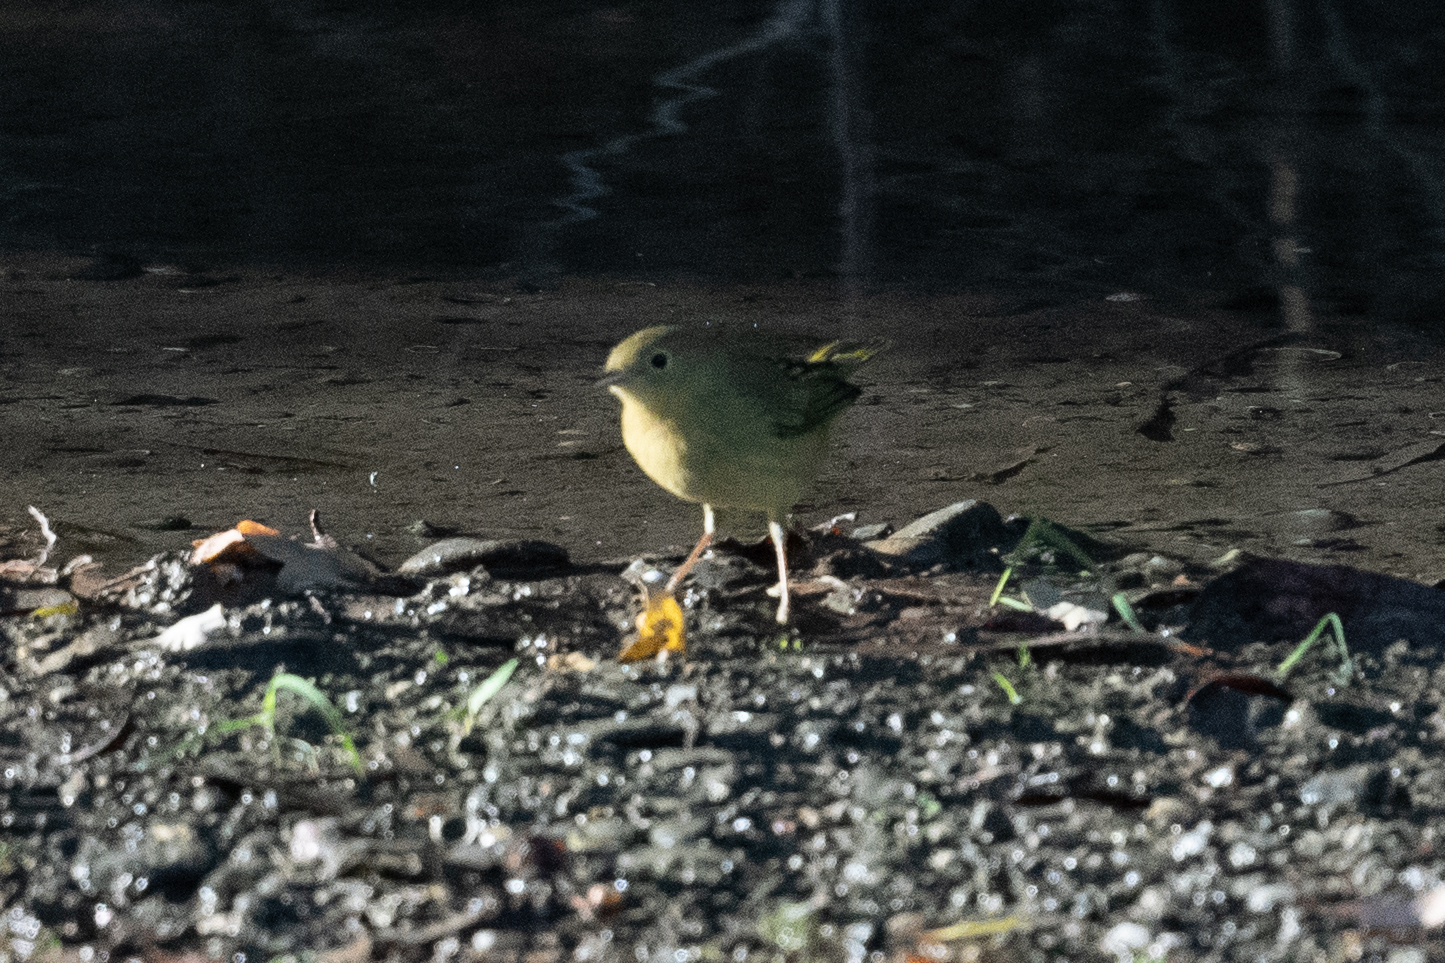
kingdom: Animalia
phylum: Chordata
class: Aves
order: Passeriformes
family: Parulidae
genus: Setophaga
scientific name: Setophaga petechia
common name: Yellow warbler
